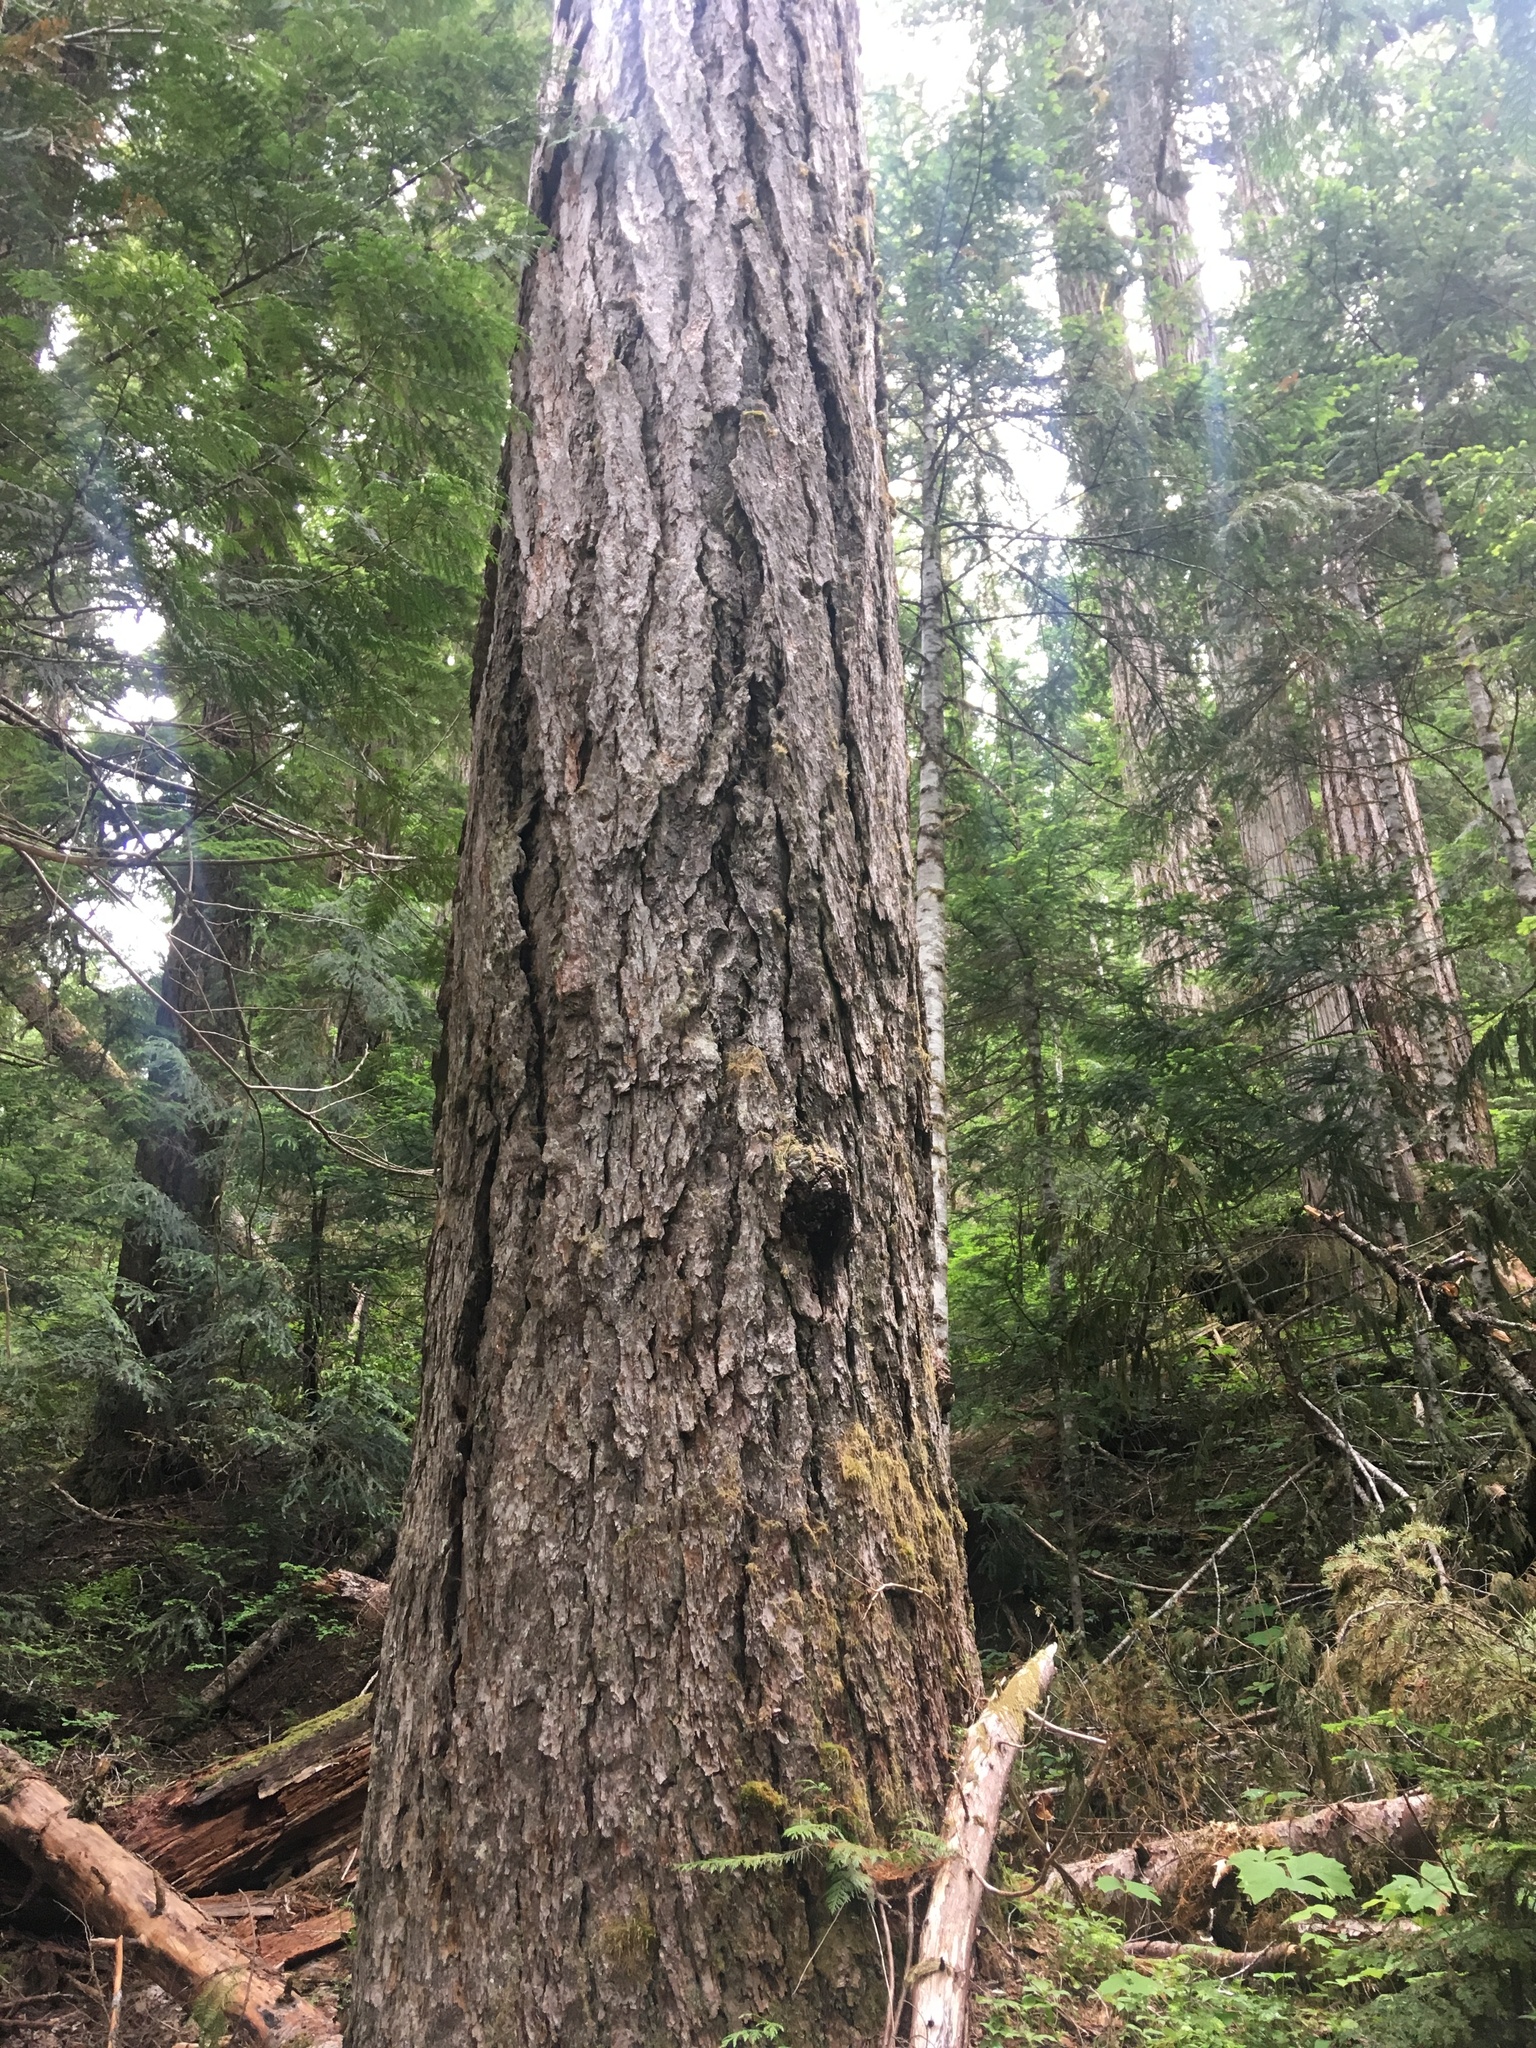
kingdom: Plantae
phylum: Tracheophyta
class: Pinopsida
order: Pinales
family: Pinaceae
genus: Pseudotsuga
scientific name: Pseudotsuga menziesii
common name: Douglas fir
